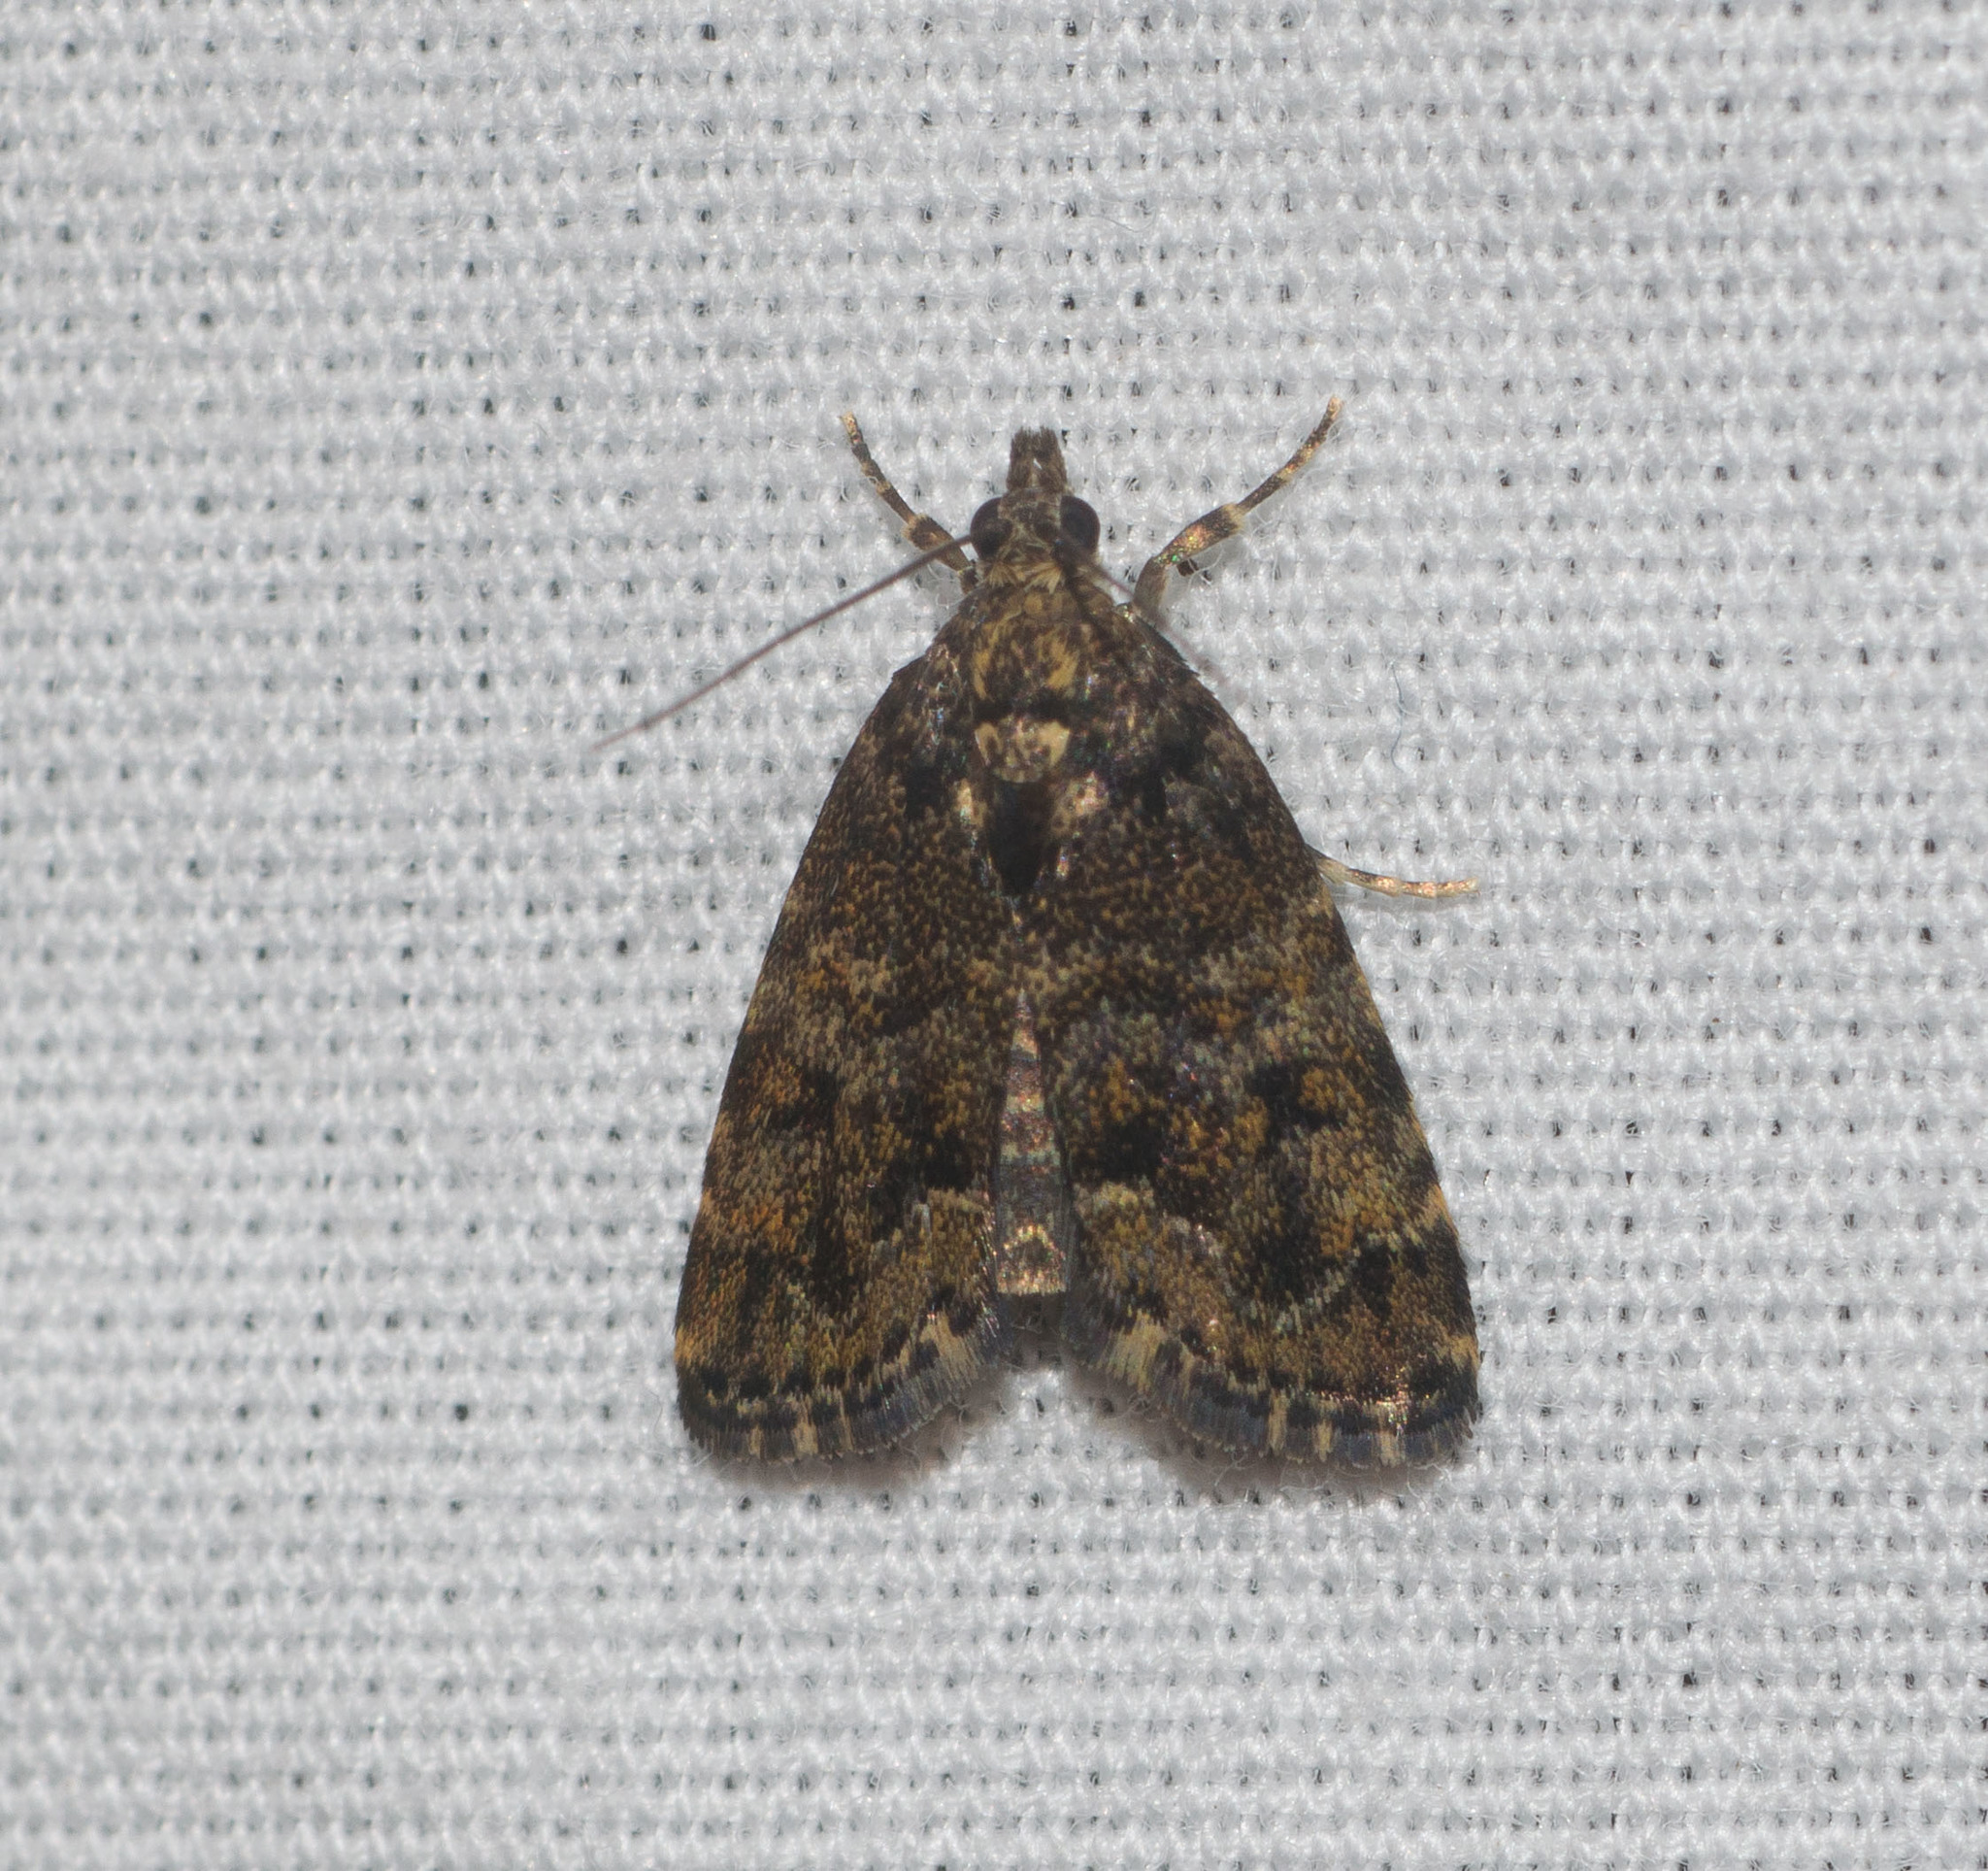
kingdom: Animalia
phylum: Arthropoda
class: Insecta
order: Lepidoptera
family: Crambidae
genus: Mestolobes
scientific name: Mestolobes abnormis
